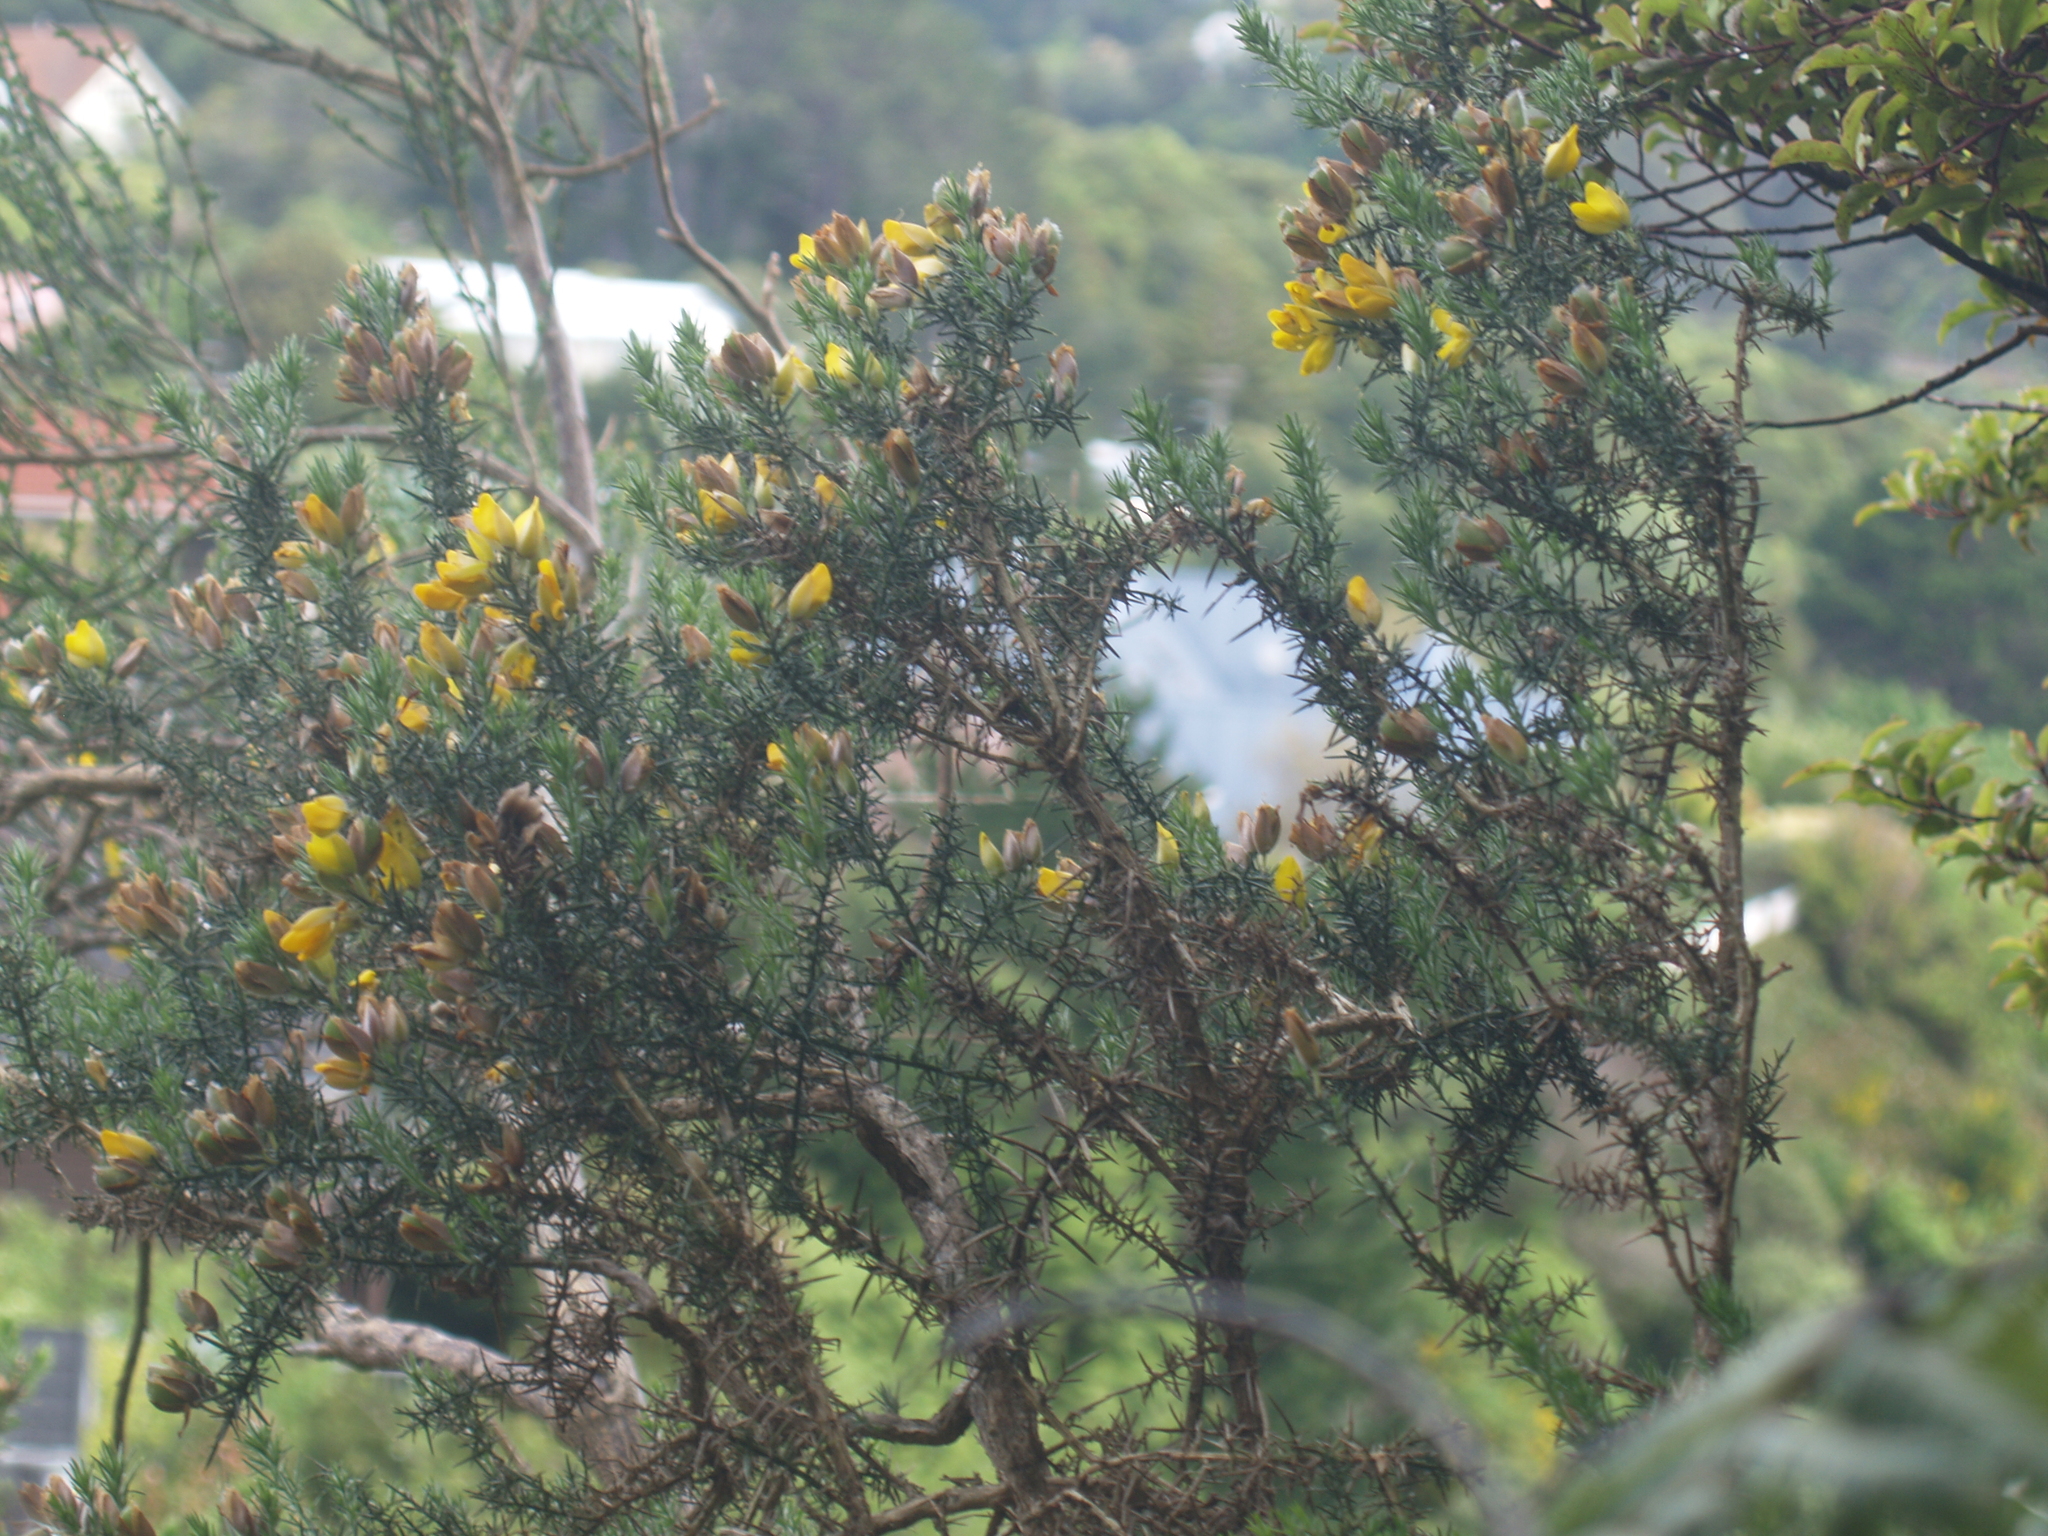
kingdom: Plantae
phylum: Tracheophyta
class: Magnoliopsida
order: Fabales
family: Fabaceae
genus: Ulex
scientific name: Ulex europaeus
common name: Common gorse
